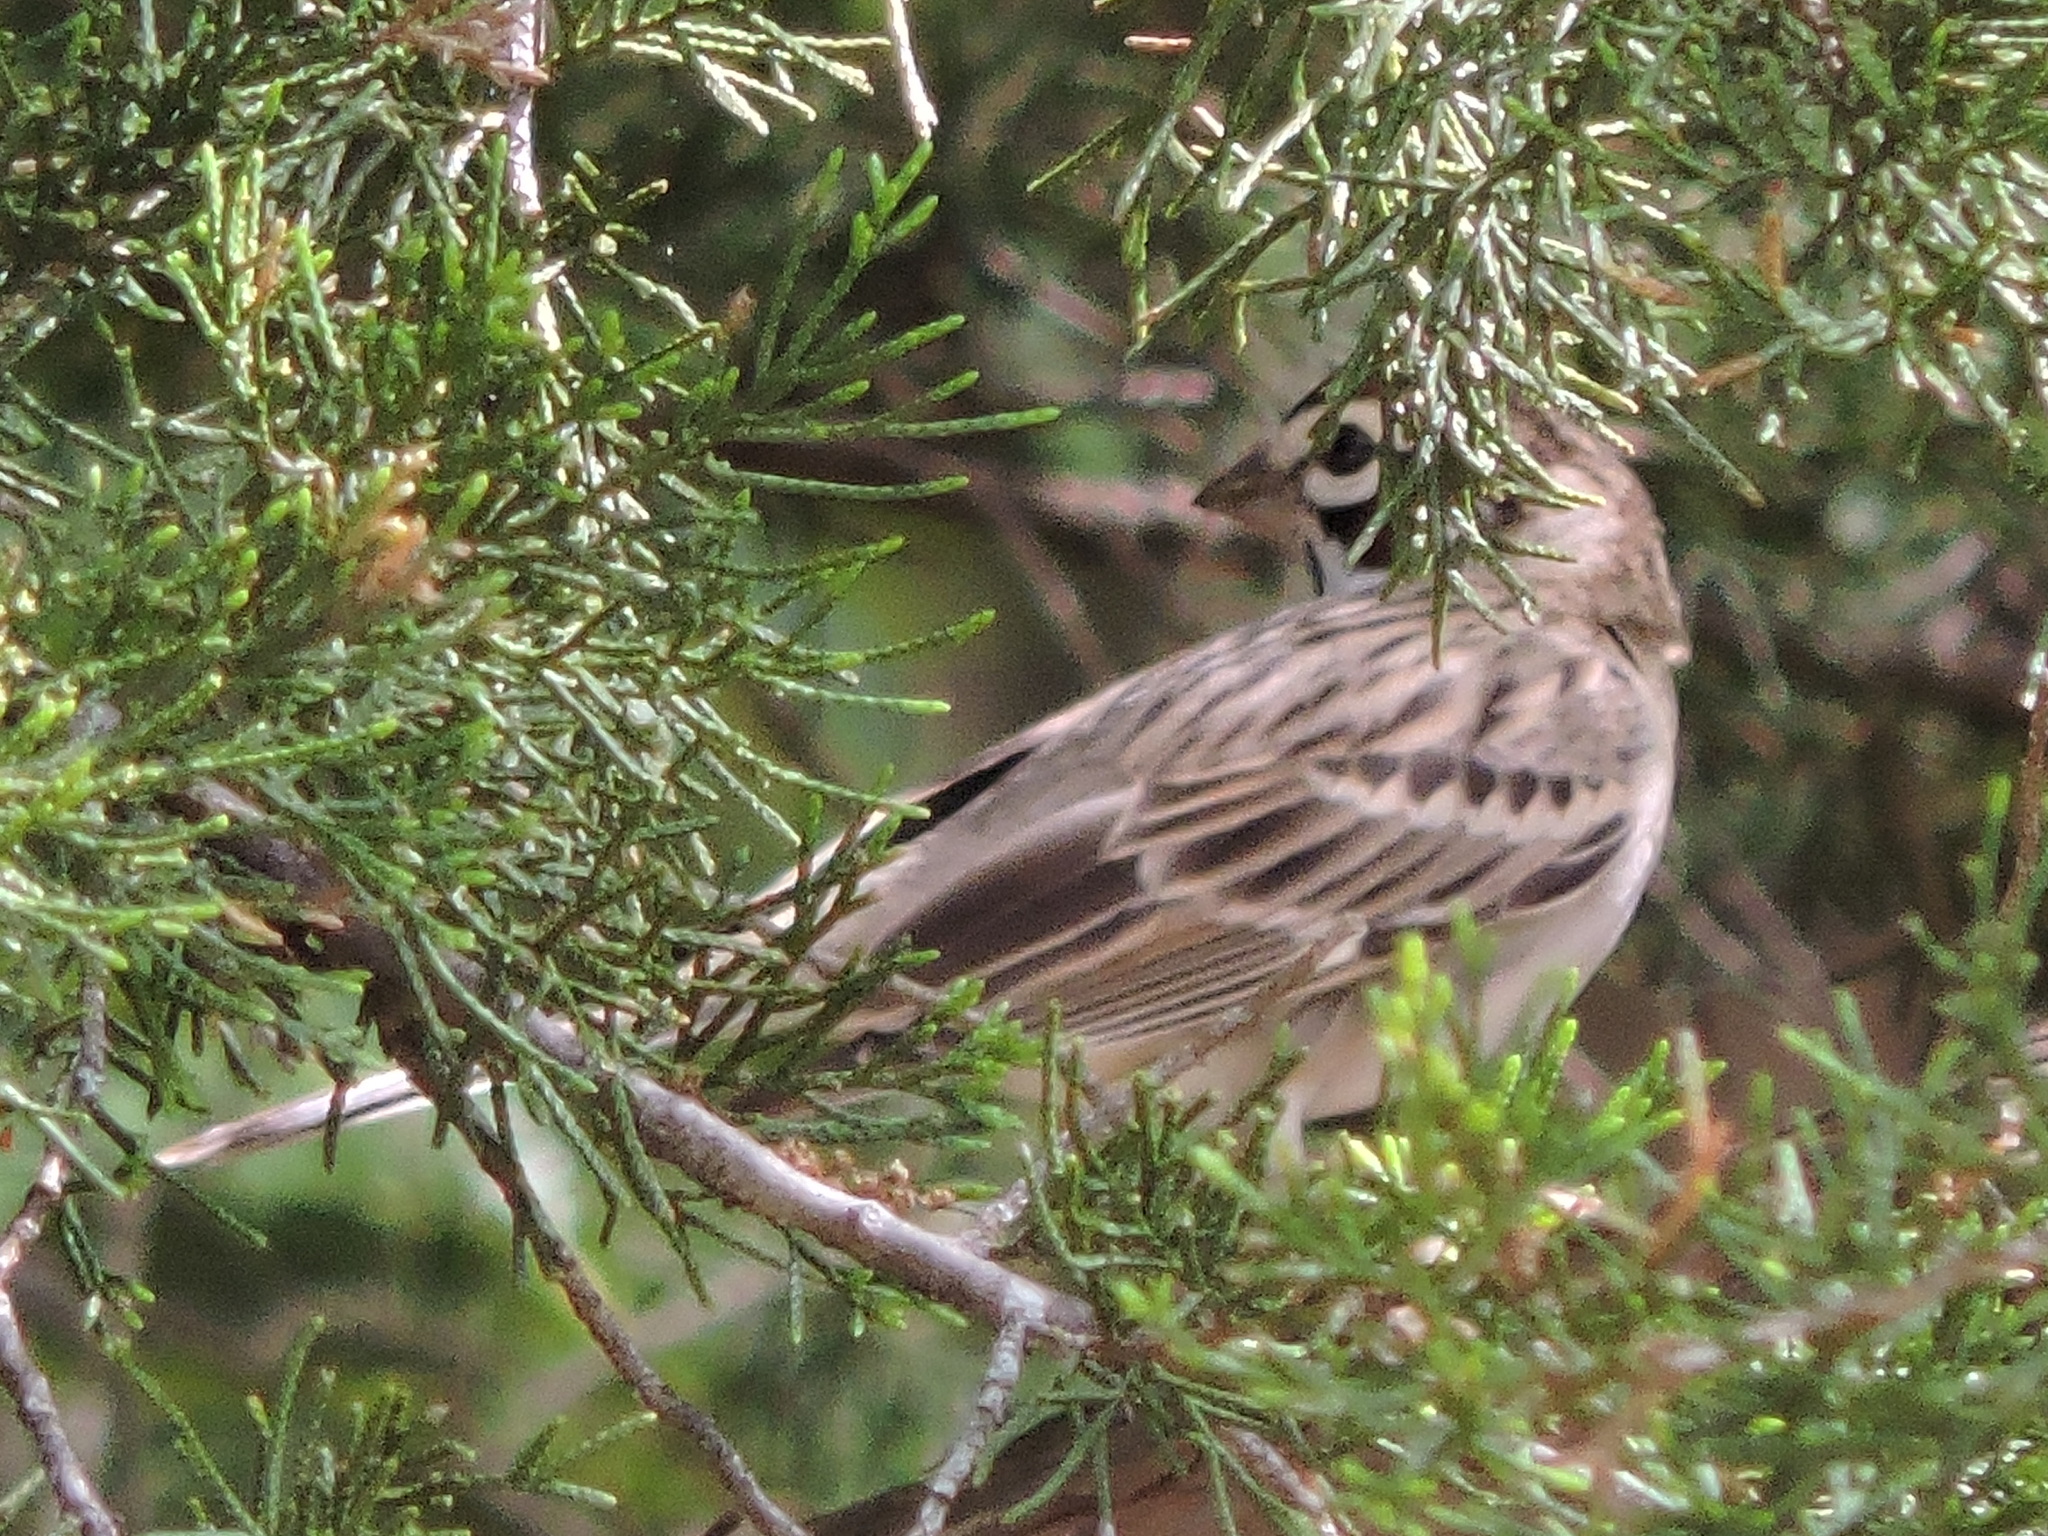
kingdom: Animalia
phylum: Chordata
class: Aves
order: Passeriformes
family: Passerellidae
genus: Chondestes
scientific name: Chondestes grammacus
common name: Lark sparrow
